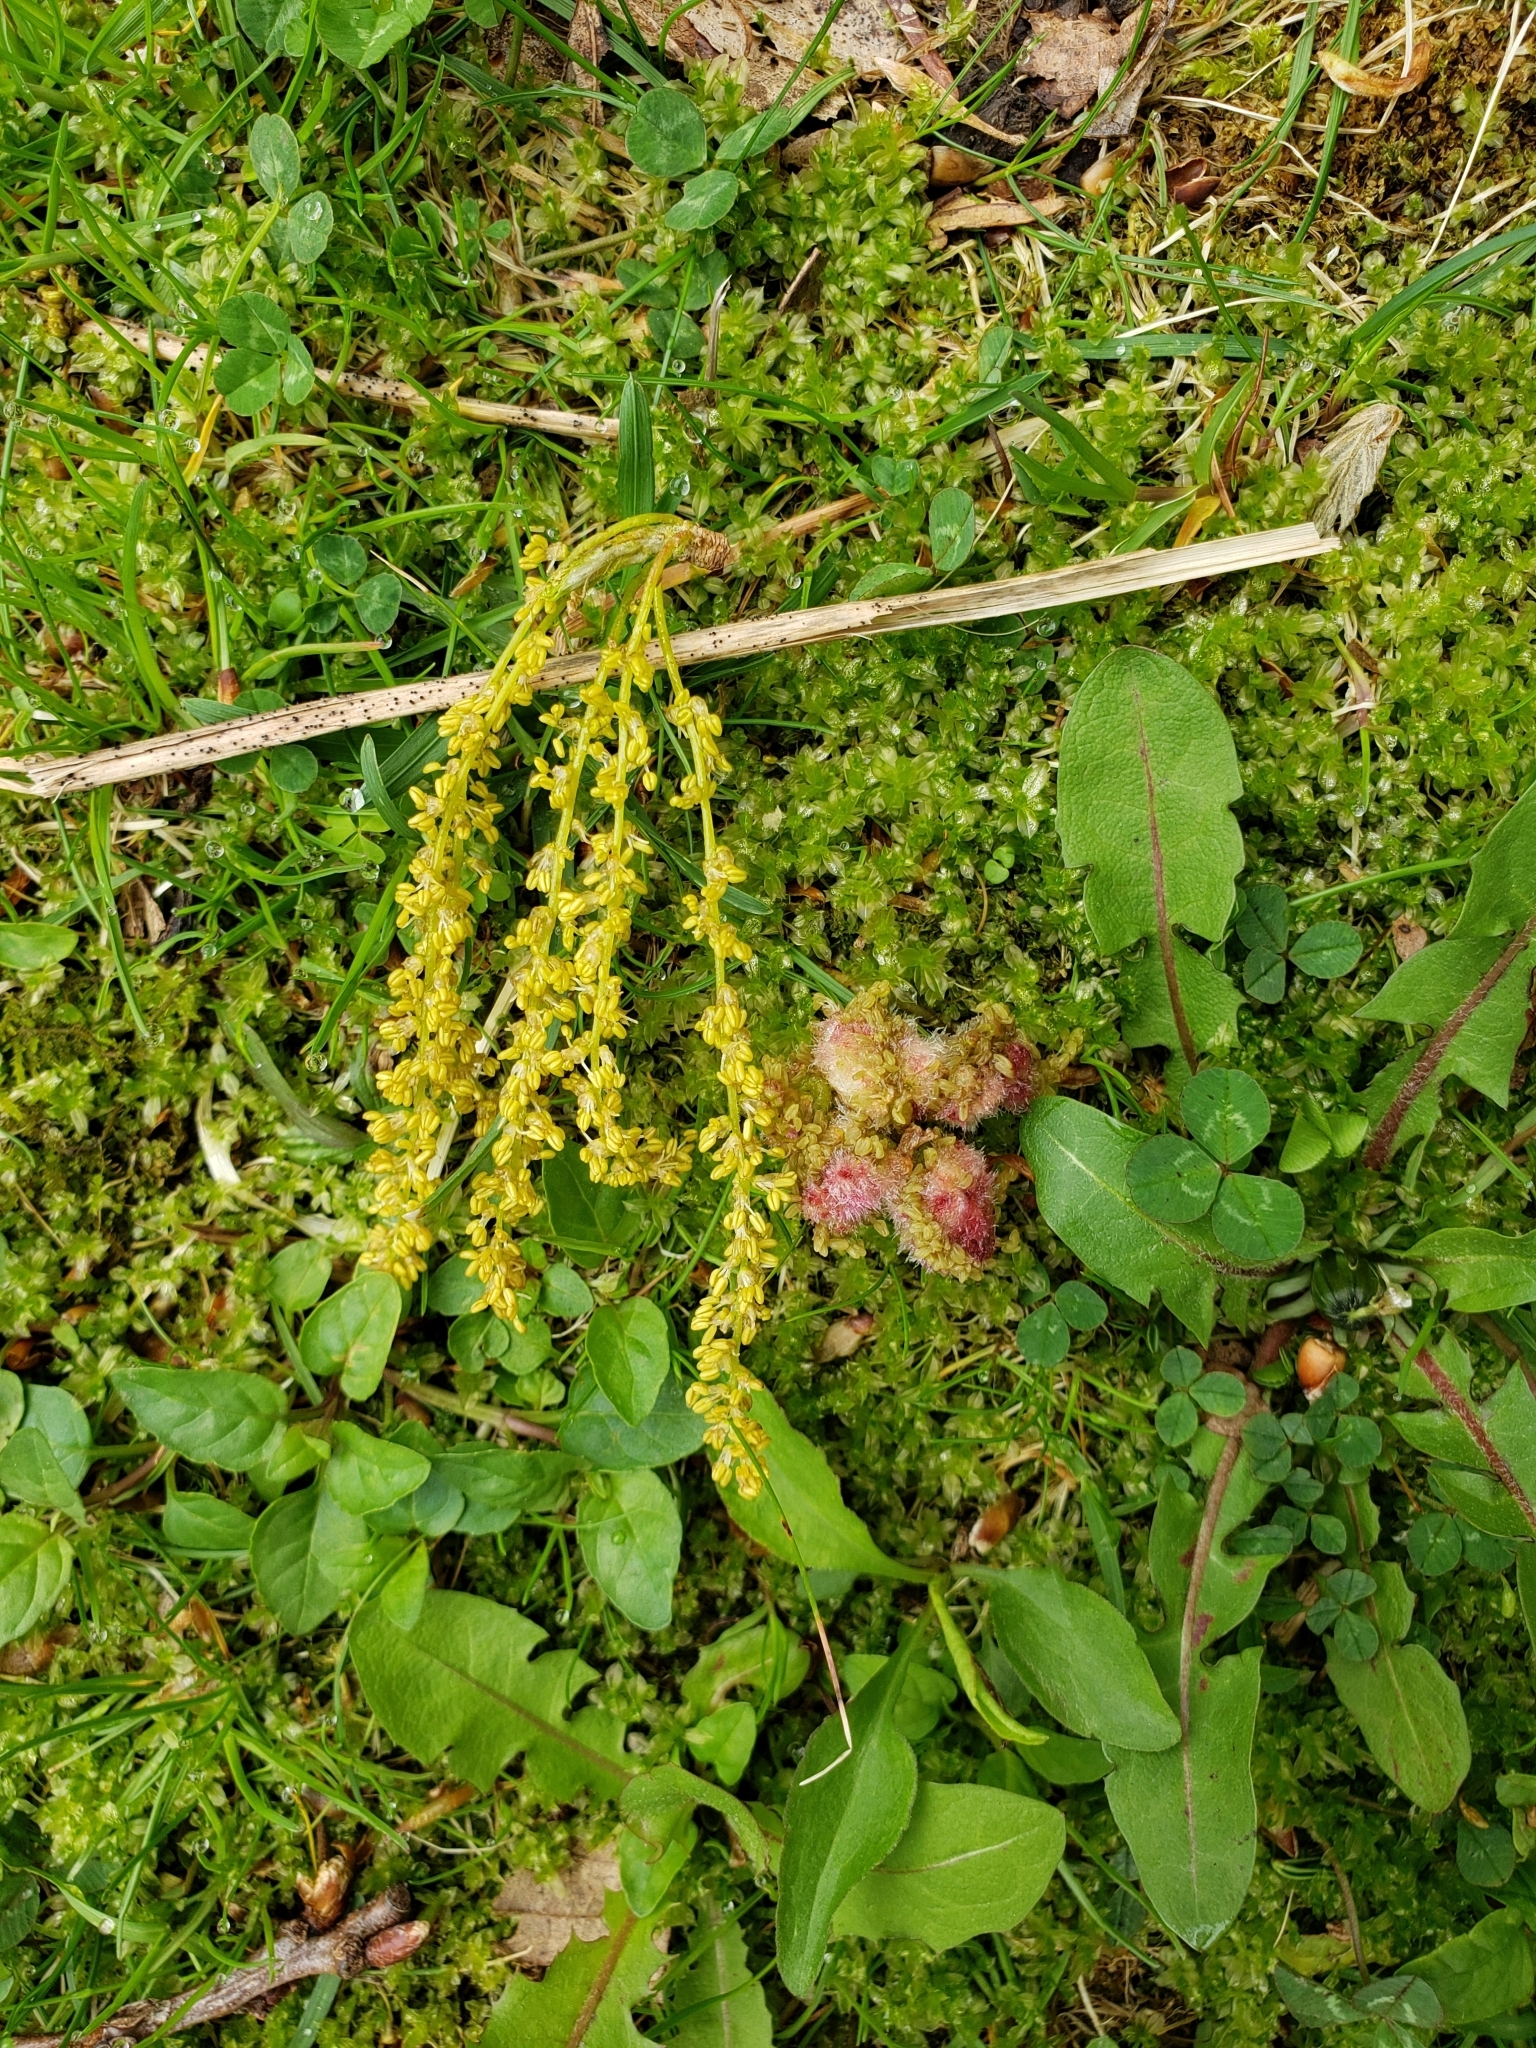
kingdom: Animalia
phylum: Arthropoda
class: Insecta
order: Hymenoptera
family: Cynipidae
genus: Callirhytis
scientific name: Callirhytis
